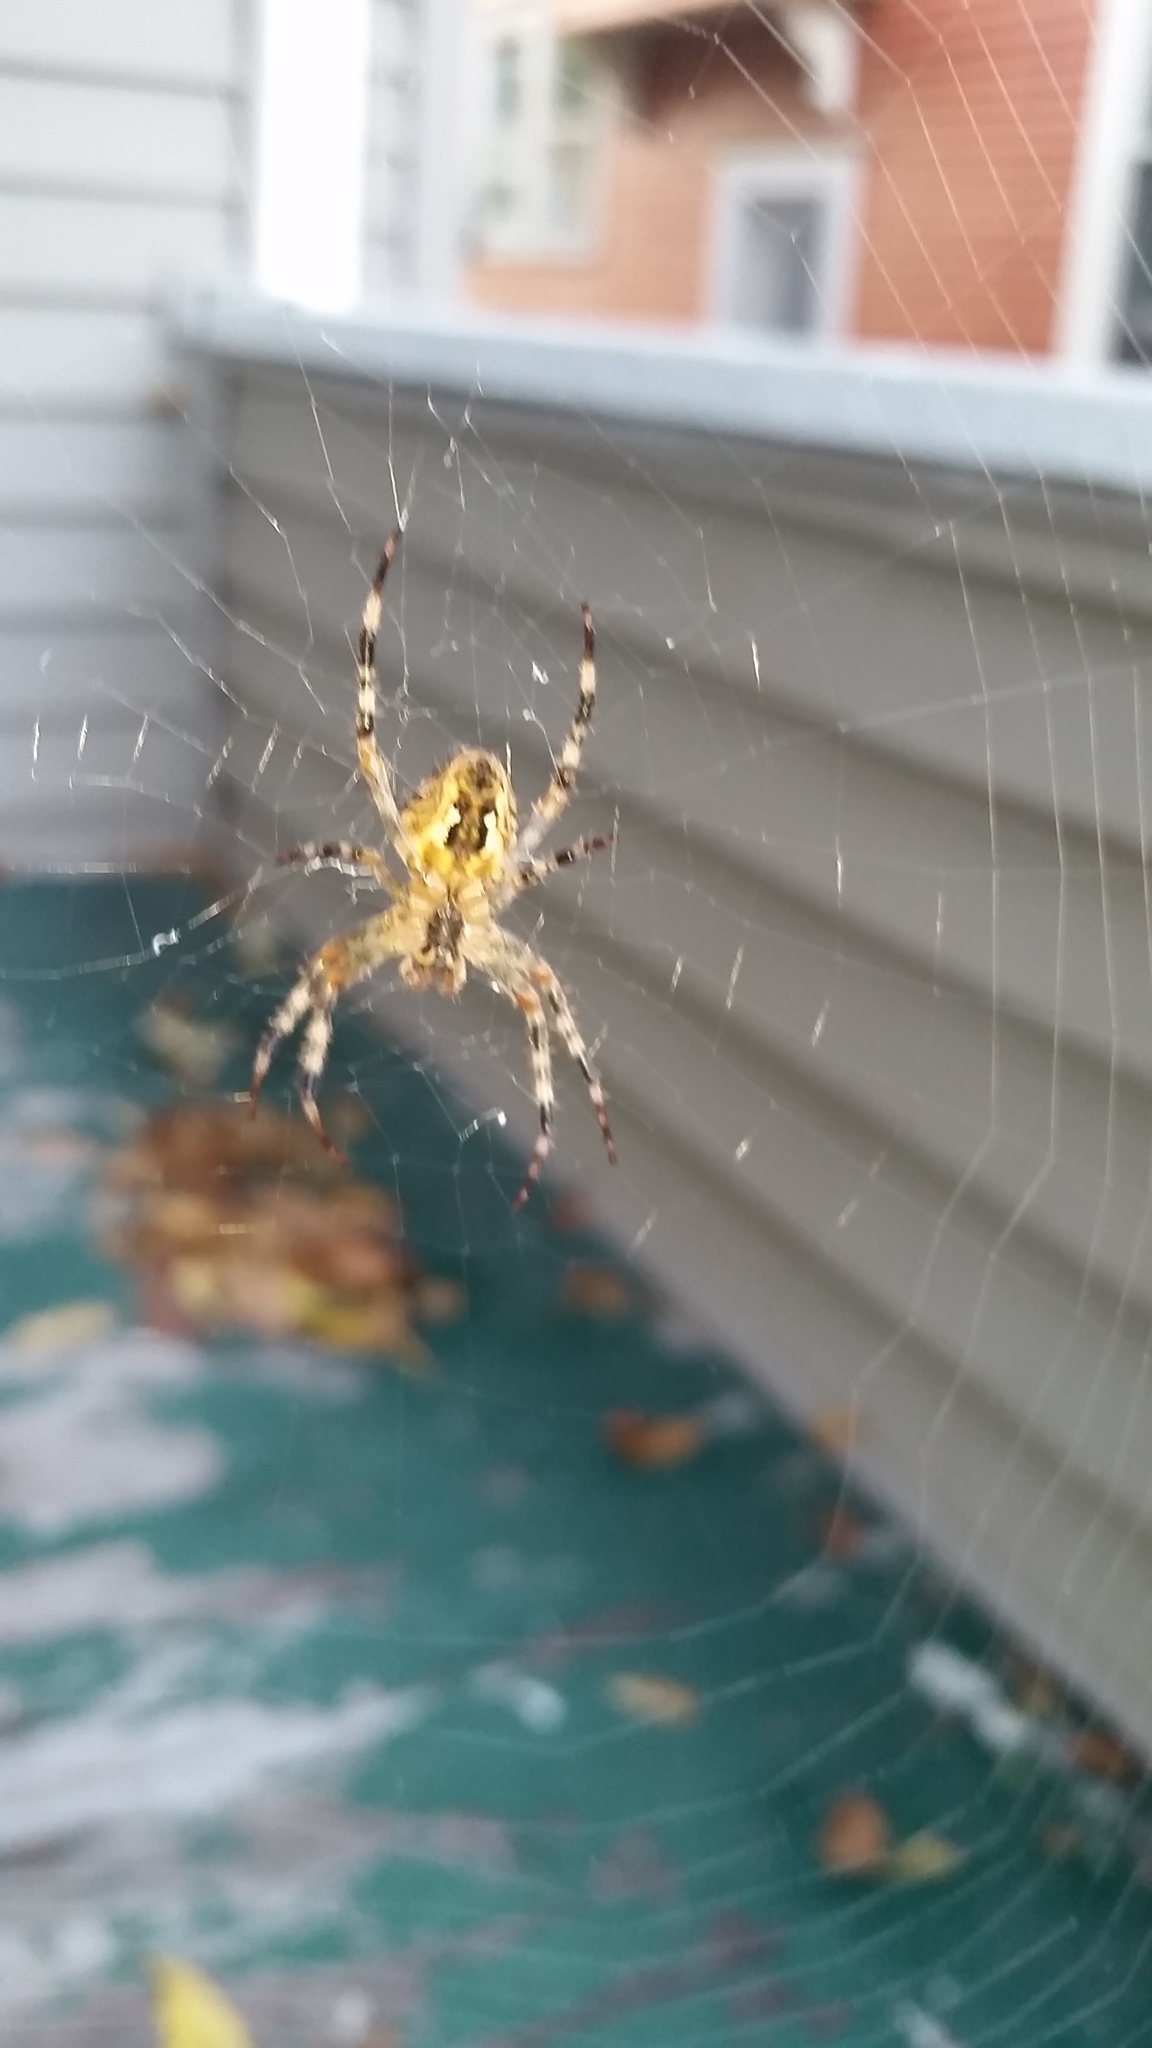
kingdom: Animalia
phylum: Arthropoda
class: Arachnida
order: Araneae
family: Araneidae
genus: Araneus
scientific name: Araneus diadematus
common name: Cross orbweaver
